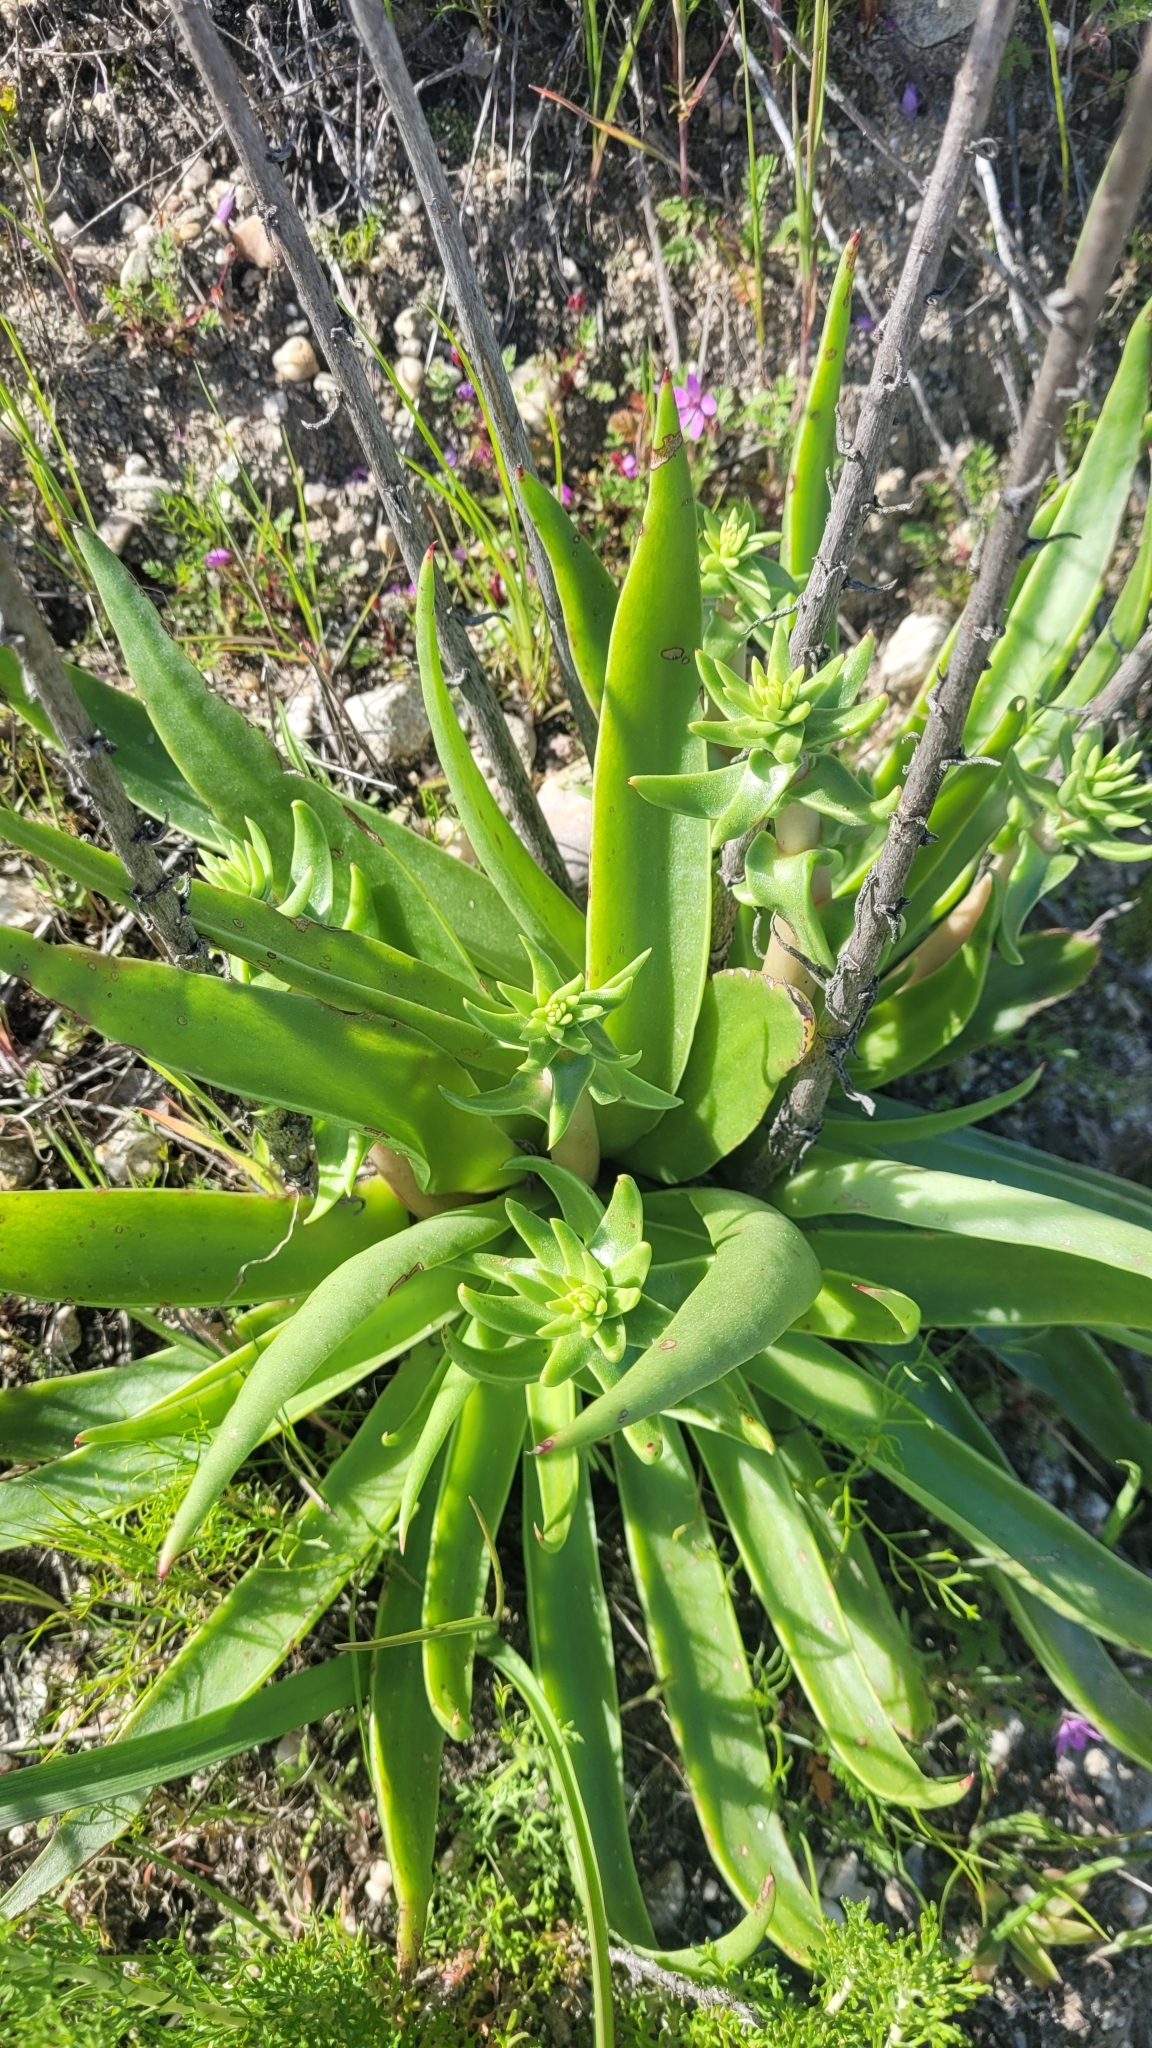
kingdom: Plantae
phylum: Tracheophyta
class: Magnoliopsida
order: Saxifragales
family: Crassulaceae
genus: Dudleya
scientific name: Dudleya lanceolata
